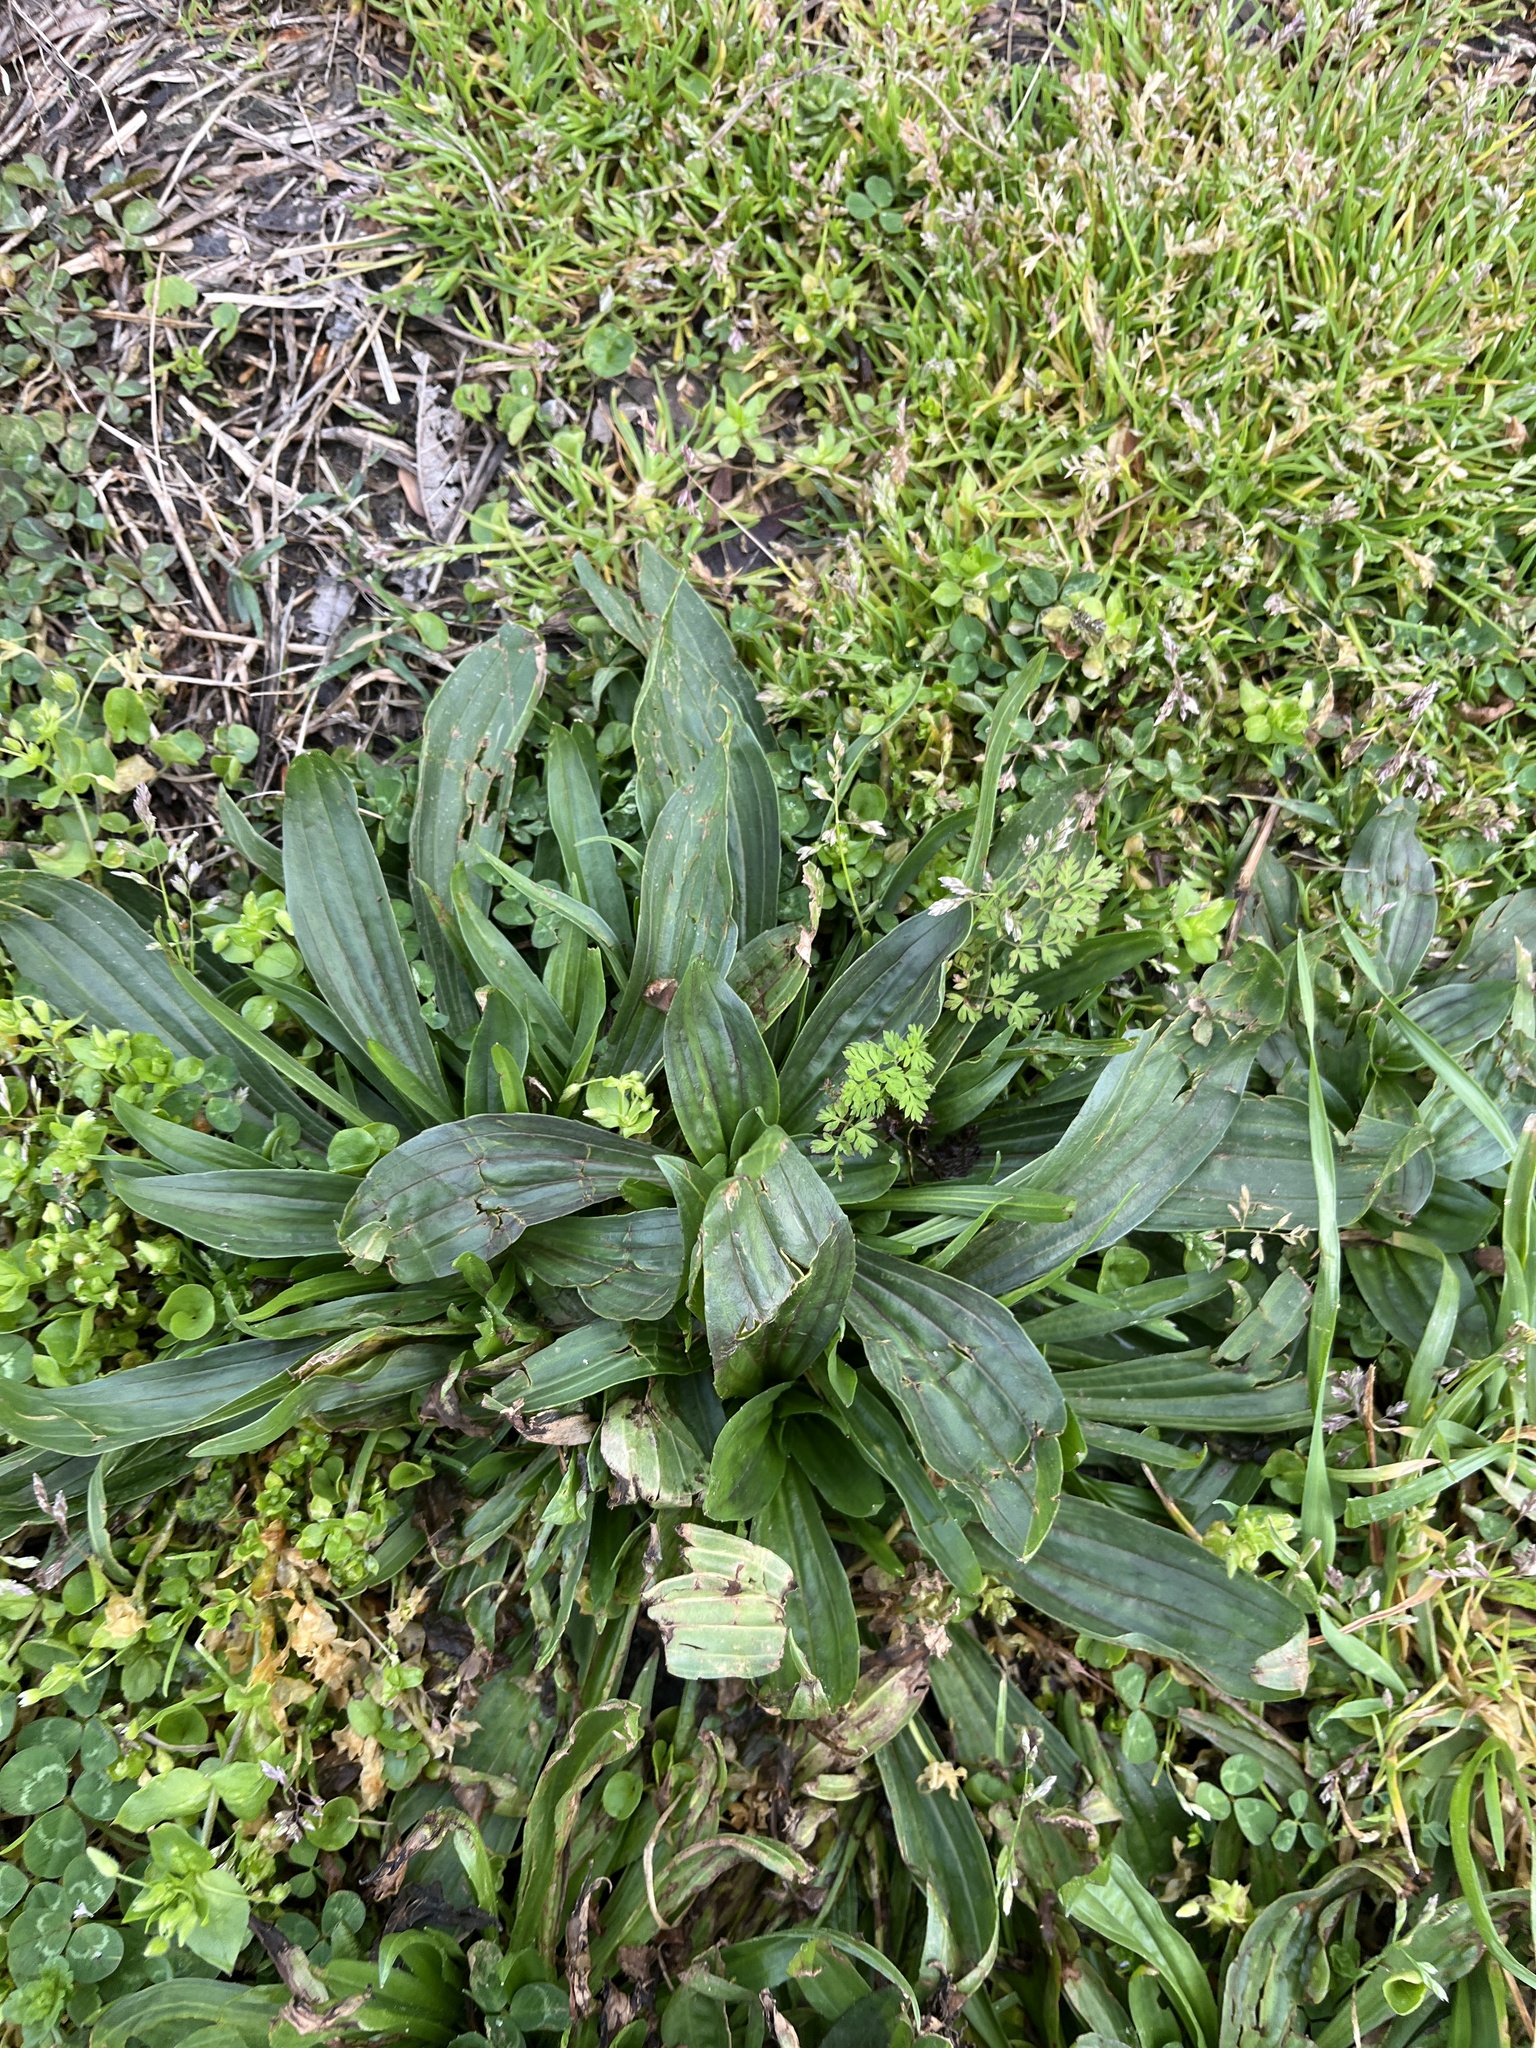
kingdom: Plantae
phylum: Tracheophyta
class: Magnoliopsida
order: Lamiales
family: Plantaginaceae
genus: Plantago
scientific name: Plantago lanceolata
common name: Ribwort plantain
